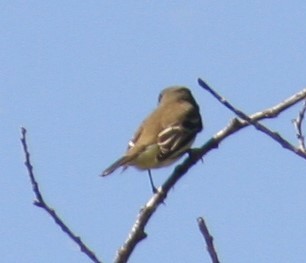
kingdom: Animalia
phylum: Chordata
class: Aves
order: Passeriformes
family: Tyrannidae
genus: Empidonax
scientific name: Empidonax alnorum
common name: Alder flycatcher
